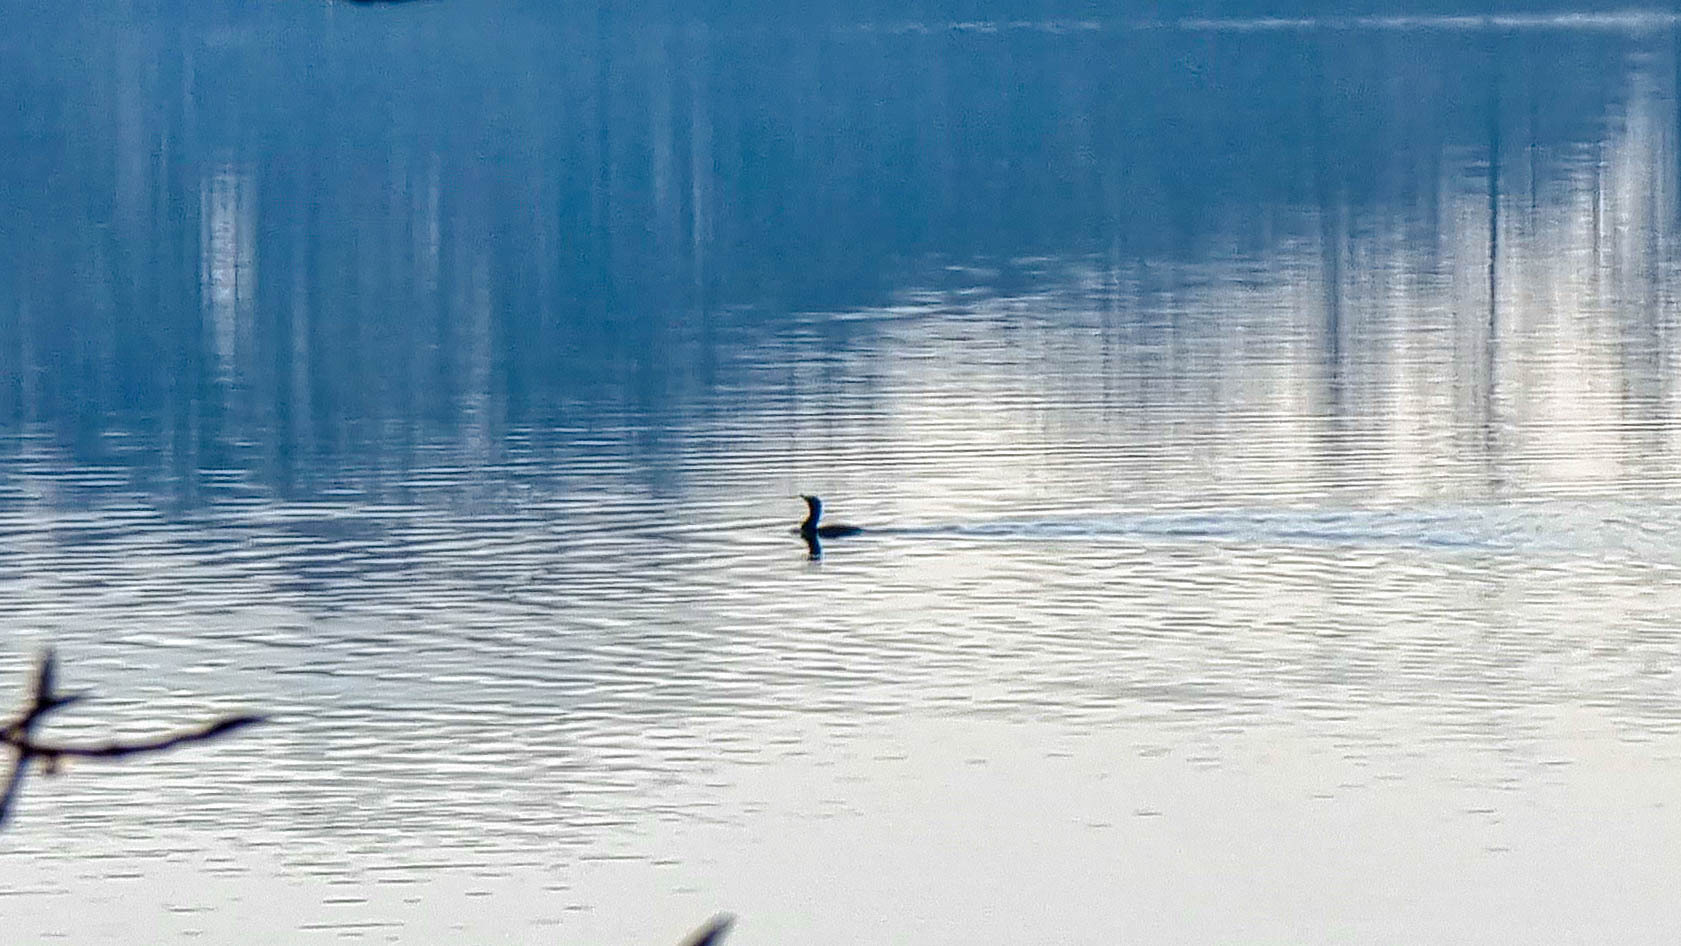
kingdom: Animalia
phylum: Chordata
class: Aves
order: Suliformes
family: Phalacrocoracidae
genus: Phalacrocorax
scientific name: Phalacrocorax carbo
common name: Great cormorant
